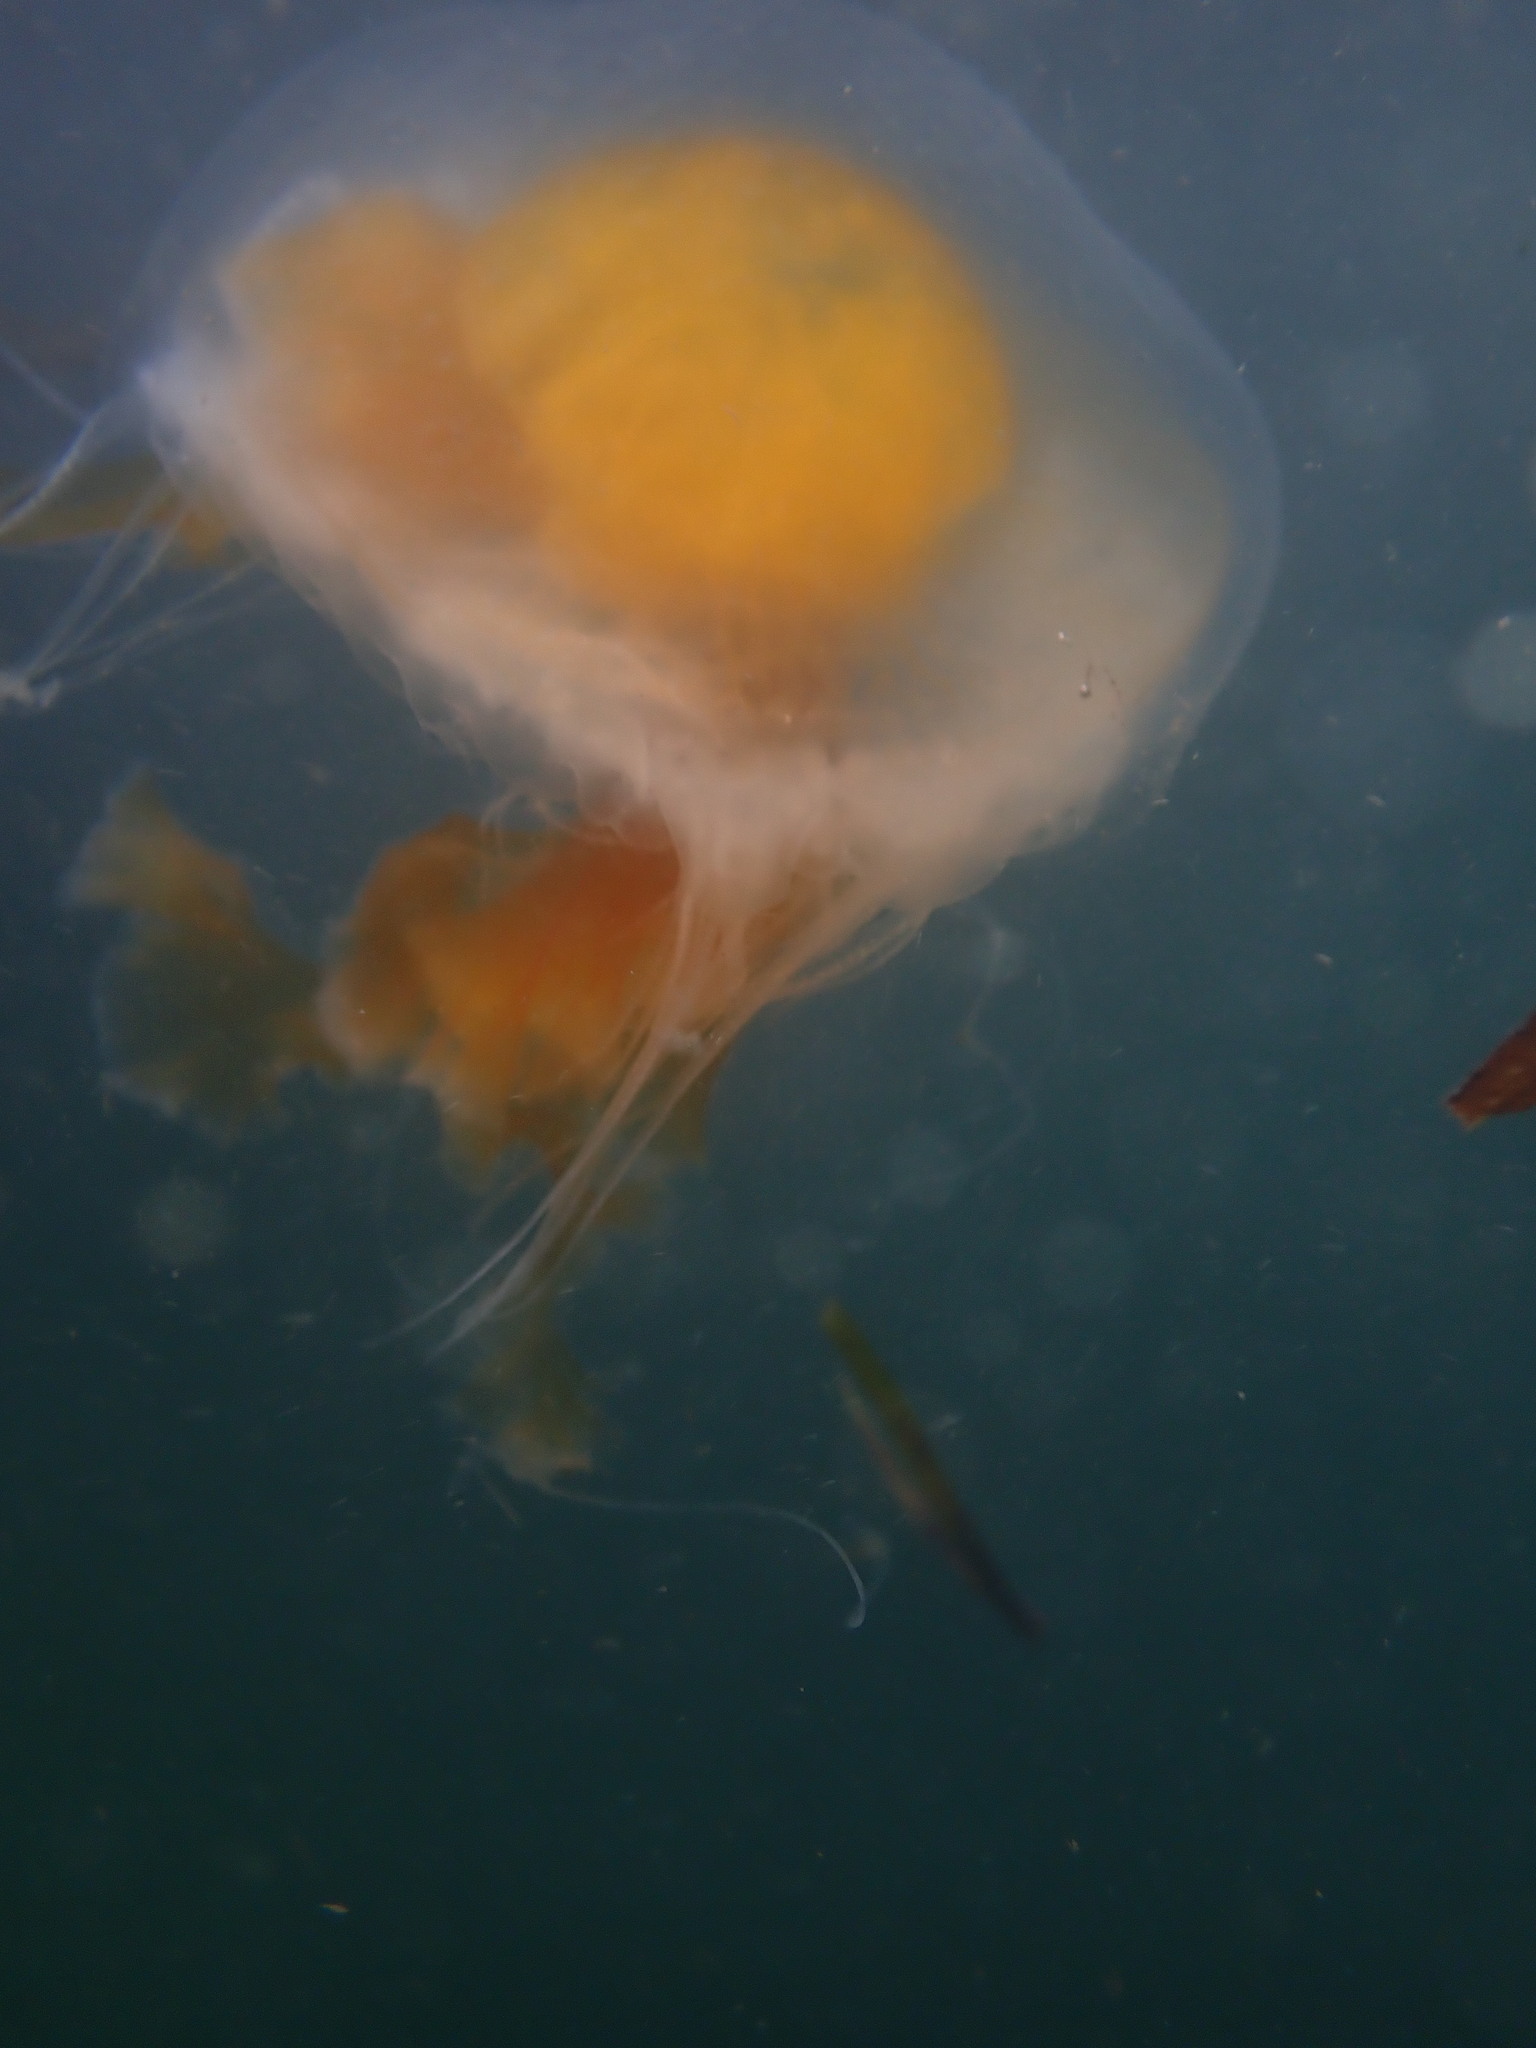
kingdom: Animalia
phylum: Cnidaria
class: Scyphozoa
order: Semaeostomeae
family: Phacellophoridae
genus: Phacellophora
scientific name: Phacellophora camtschatica
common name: Fried-egg jellyfish
